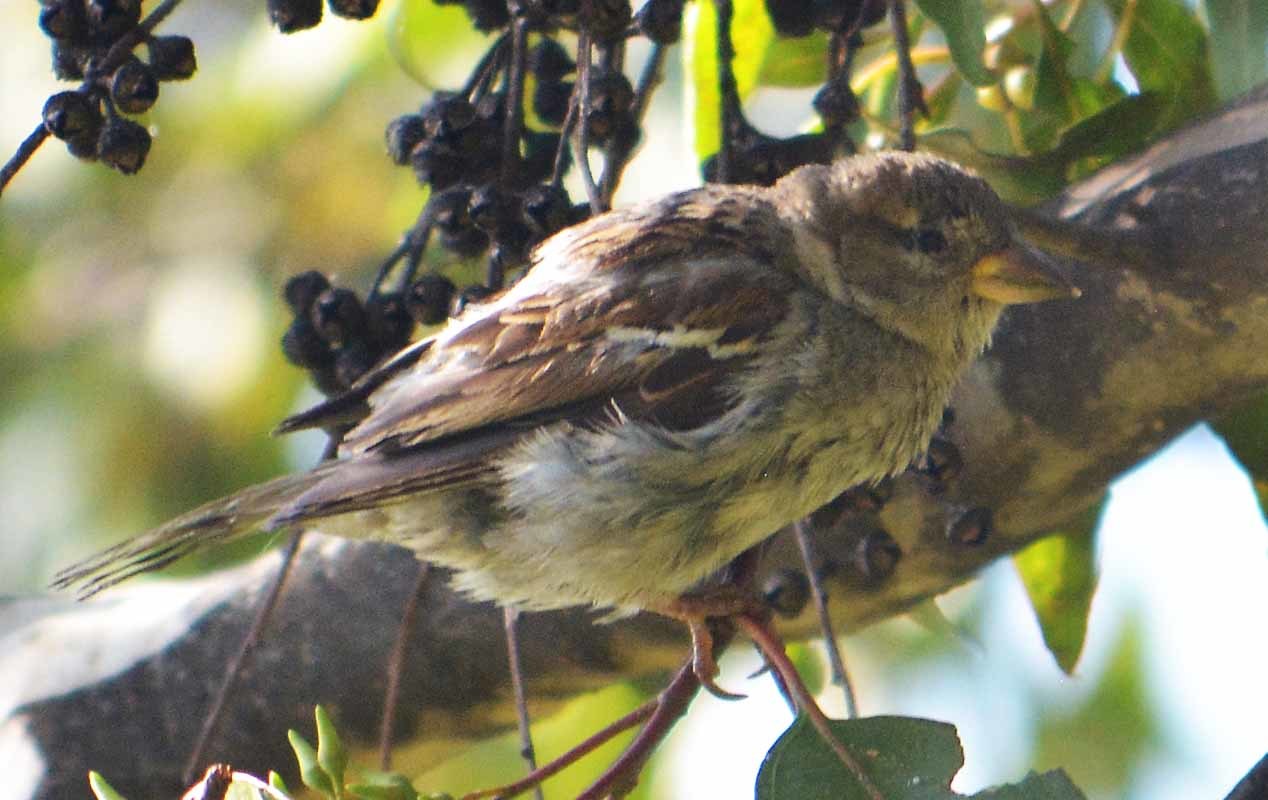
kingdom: Animalia
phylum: Chordata
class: Aves
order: Passeriformes
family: Passeridae
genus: Passer
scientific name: Passer domesticus
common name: House sparrow
